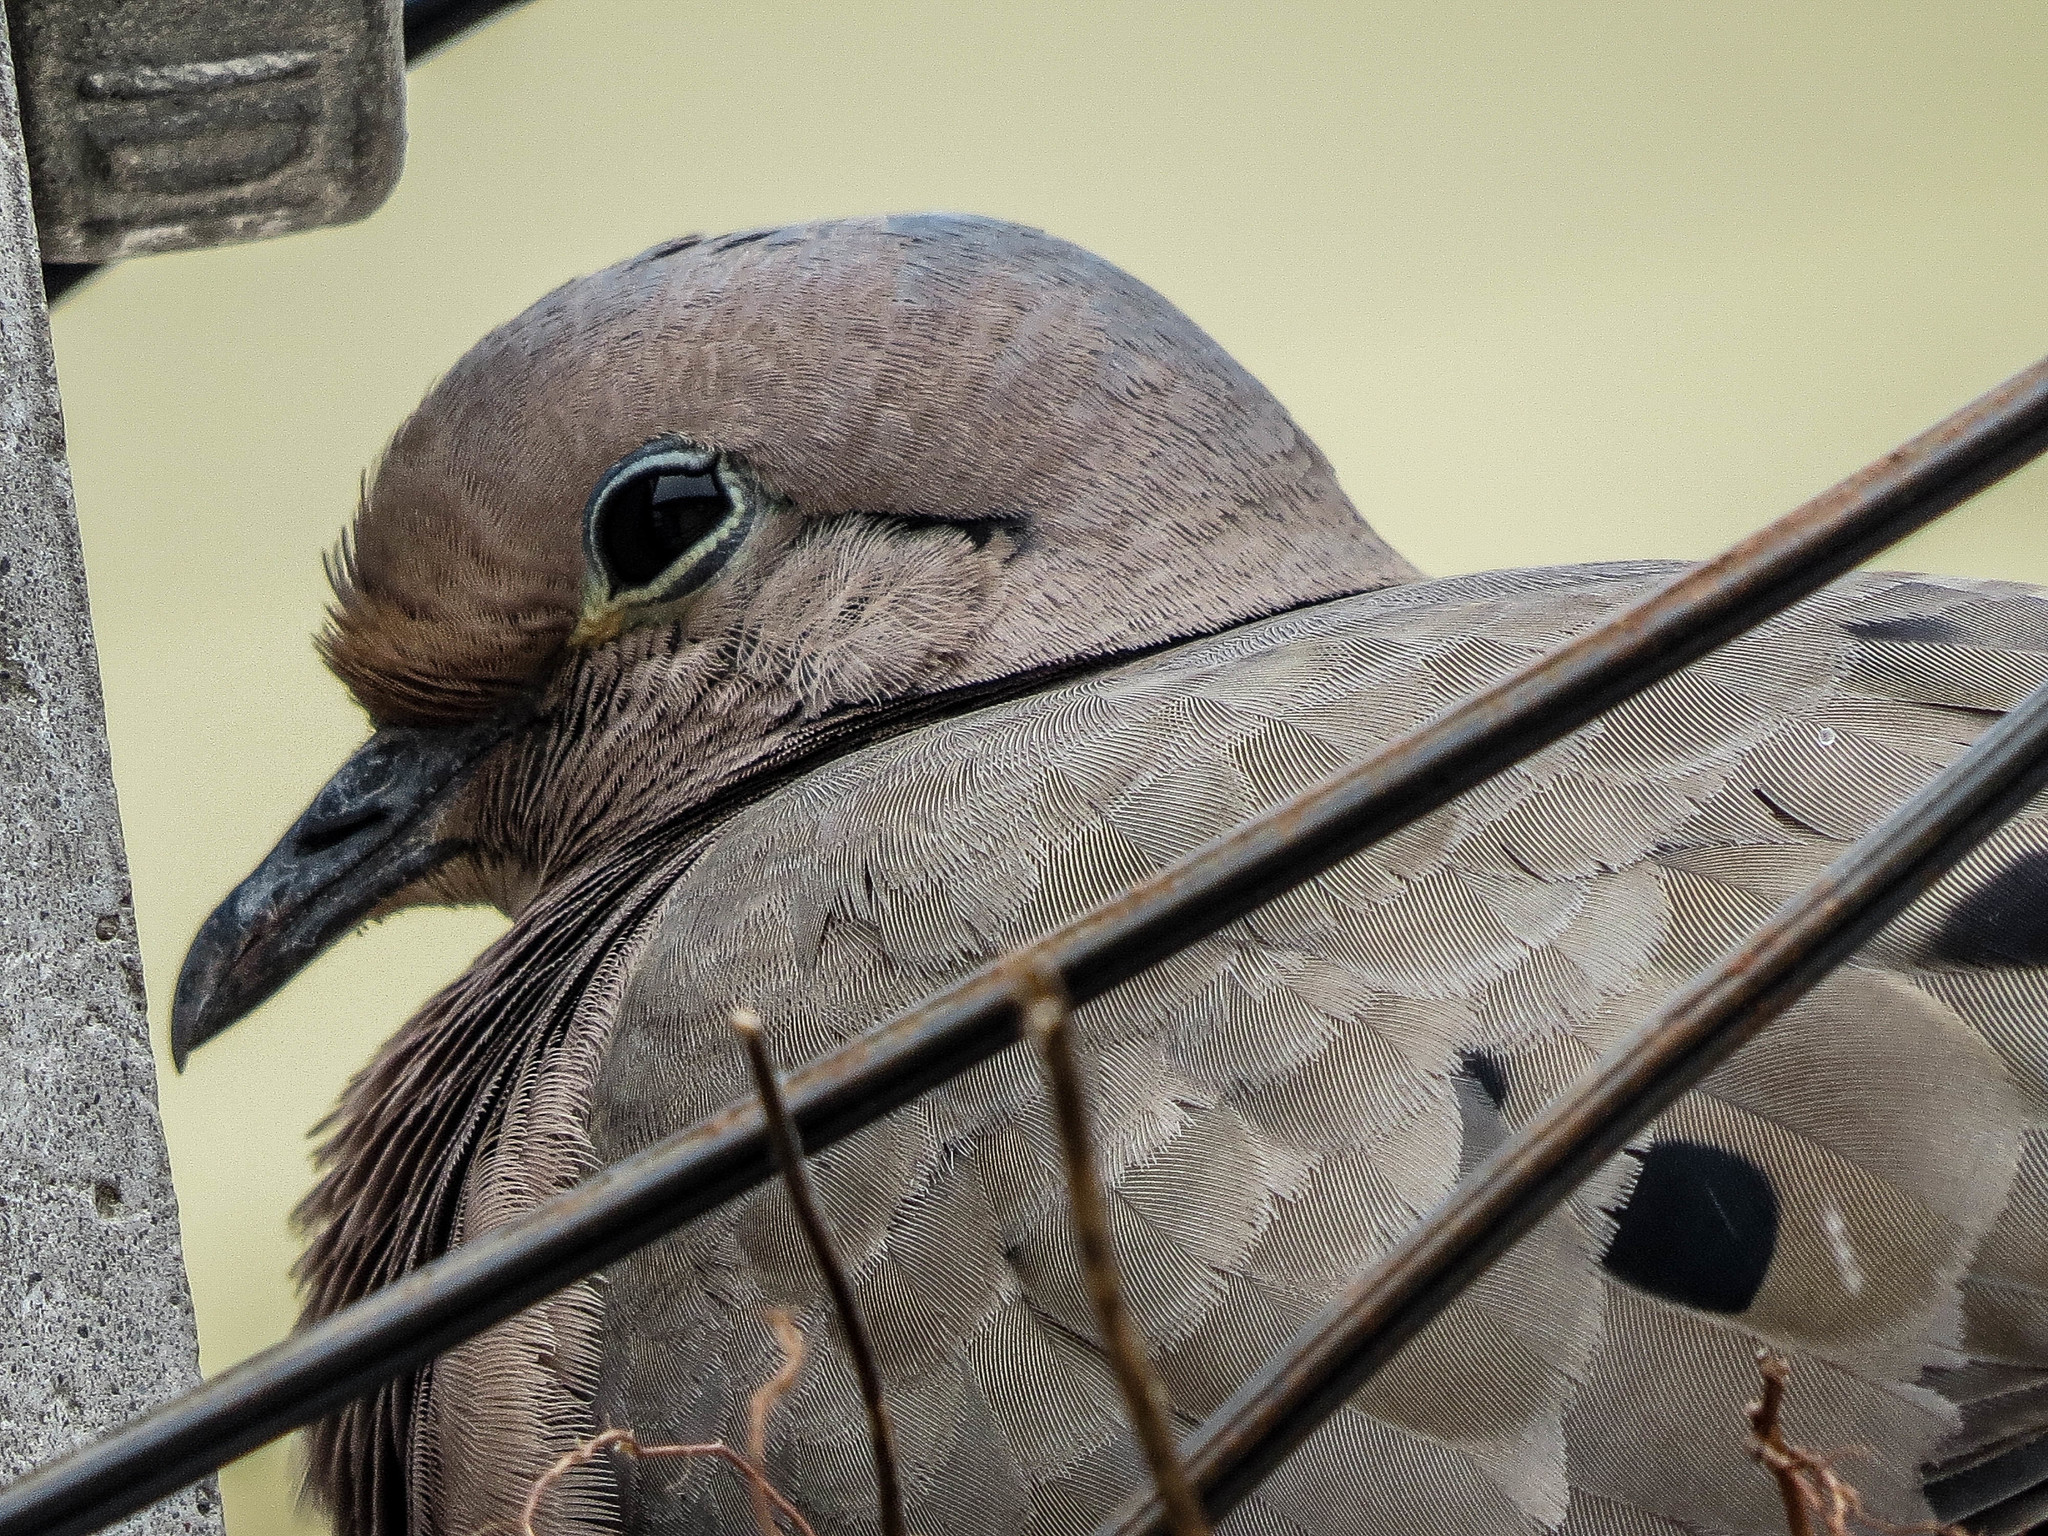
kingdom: Animalia
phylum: Chordata
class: Aves
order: Columbiformes
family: Columbidae
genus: Zenaida
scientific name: Zenaida auriculata
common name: Eared dove
